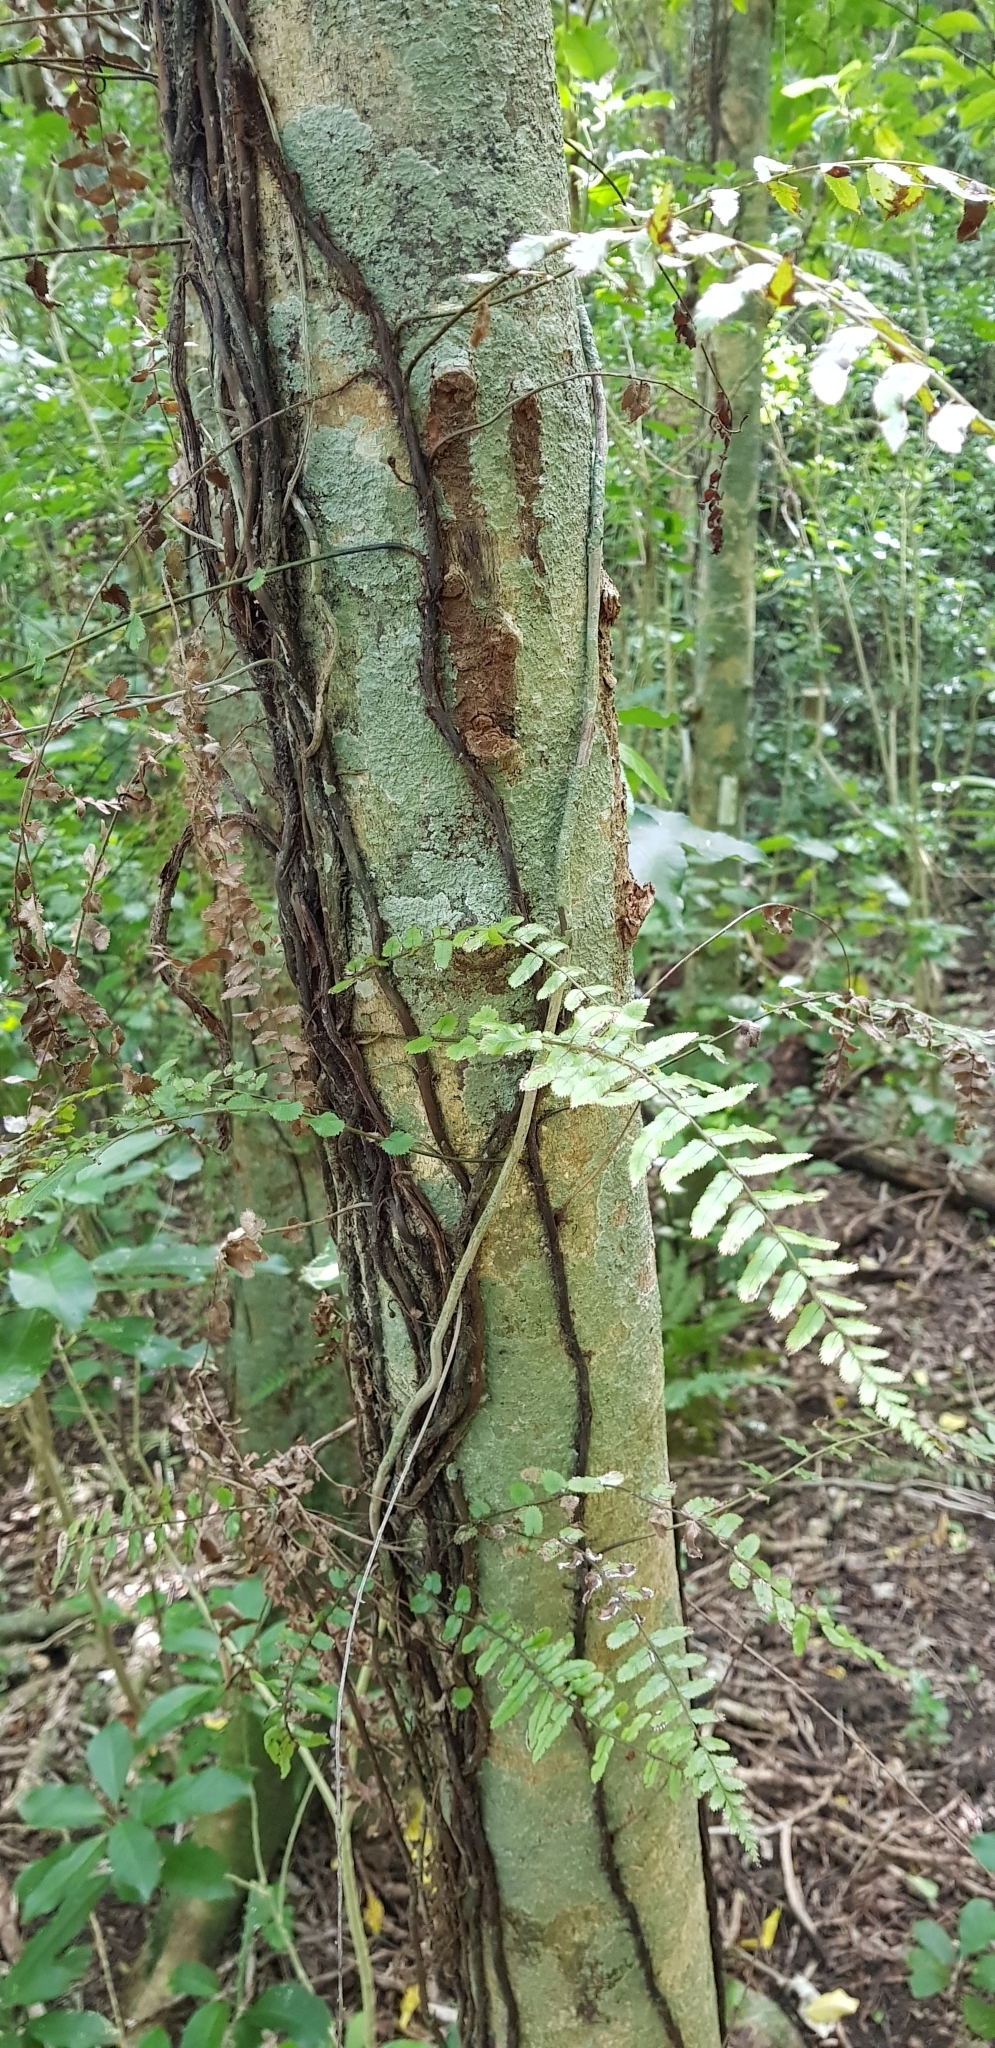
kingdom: Plantae
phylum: Tracheophyta
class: Polypodiopsida
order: Polypodiales
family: Blechnaceae
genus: Icarus
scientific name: Icarus filiformis
